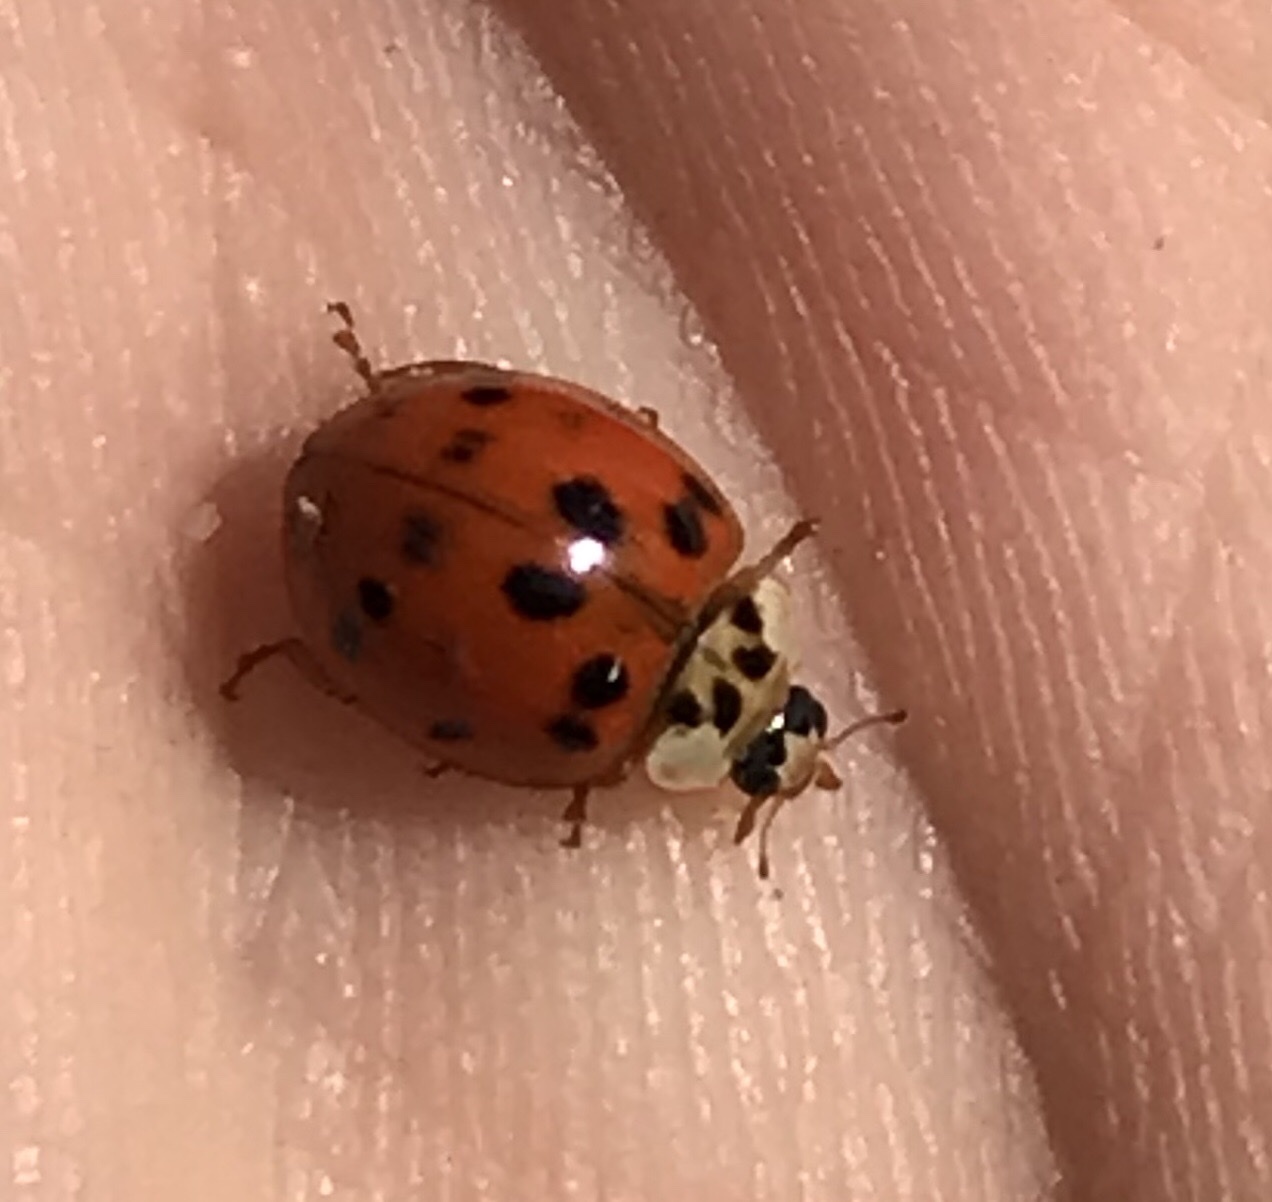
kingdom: Animalia
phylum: Arthropoda
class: Insecta
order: Coleoptera
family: Coccinellidae
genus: Harmonia
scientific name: Harmonia axyridis
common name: Harlequin ladybird
